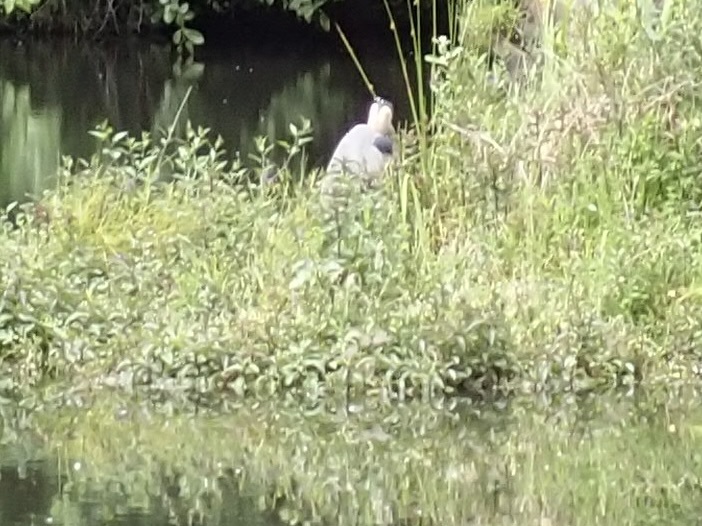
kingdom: Animalia
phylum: Chordata
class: Aves
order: Pelecaniformes
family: Ardeidae
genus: Ardea
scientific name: Ardea herodias
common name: Great blue heron
